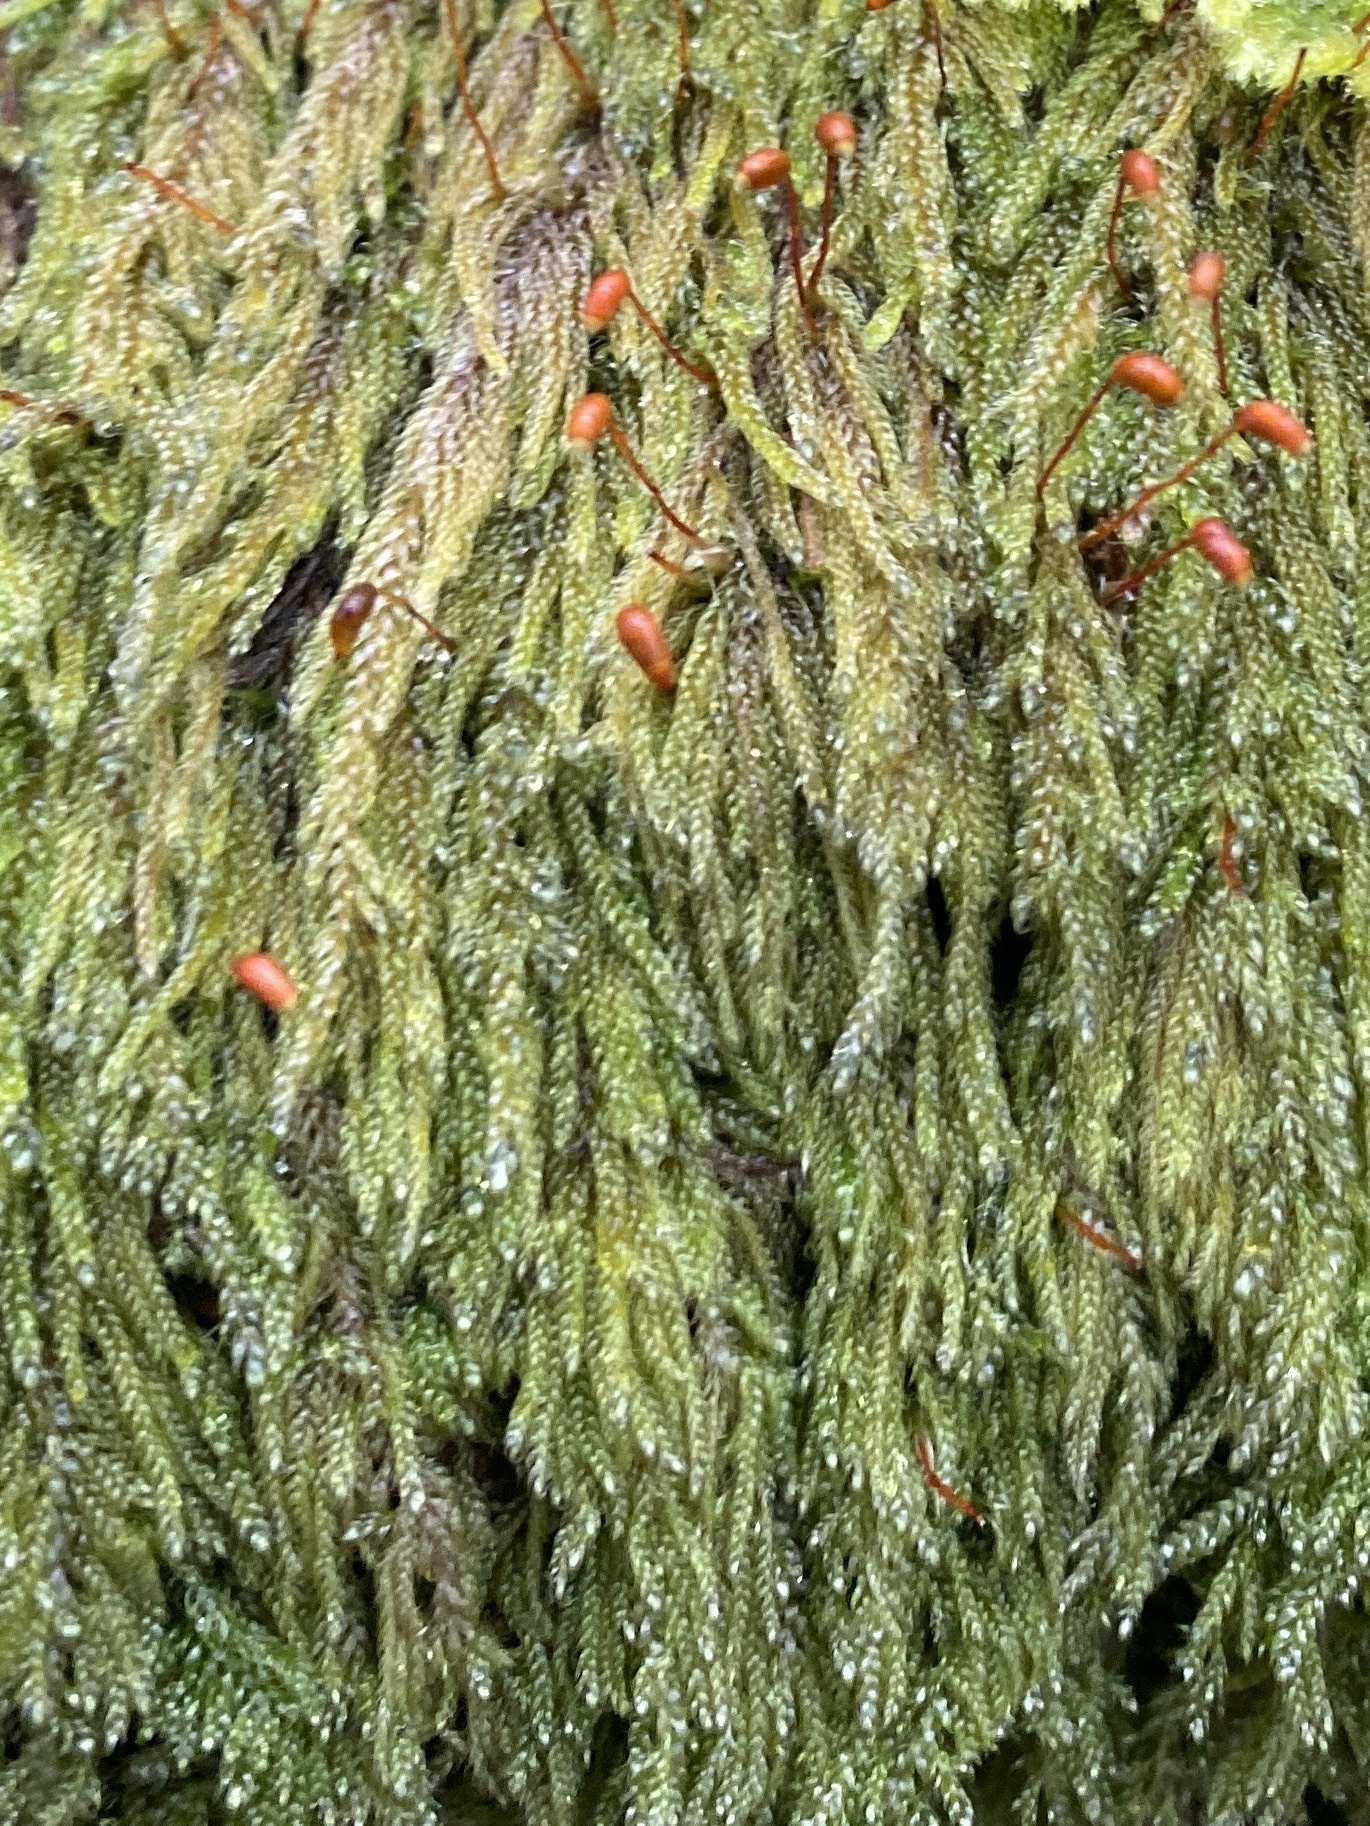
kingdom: Plantae
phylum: Bryophyta
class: Bryopsida
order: Hypnales
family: Pylaisiadelphaceae
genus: Trochophyllohypnum
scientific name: Trochophyllohypnum circinale
